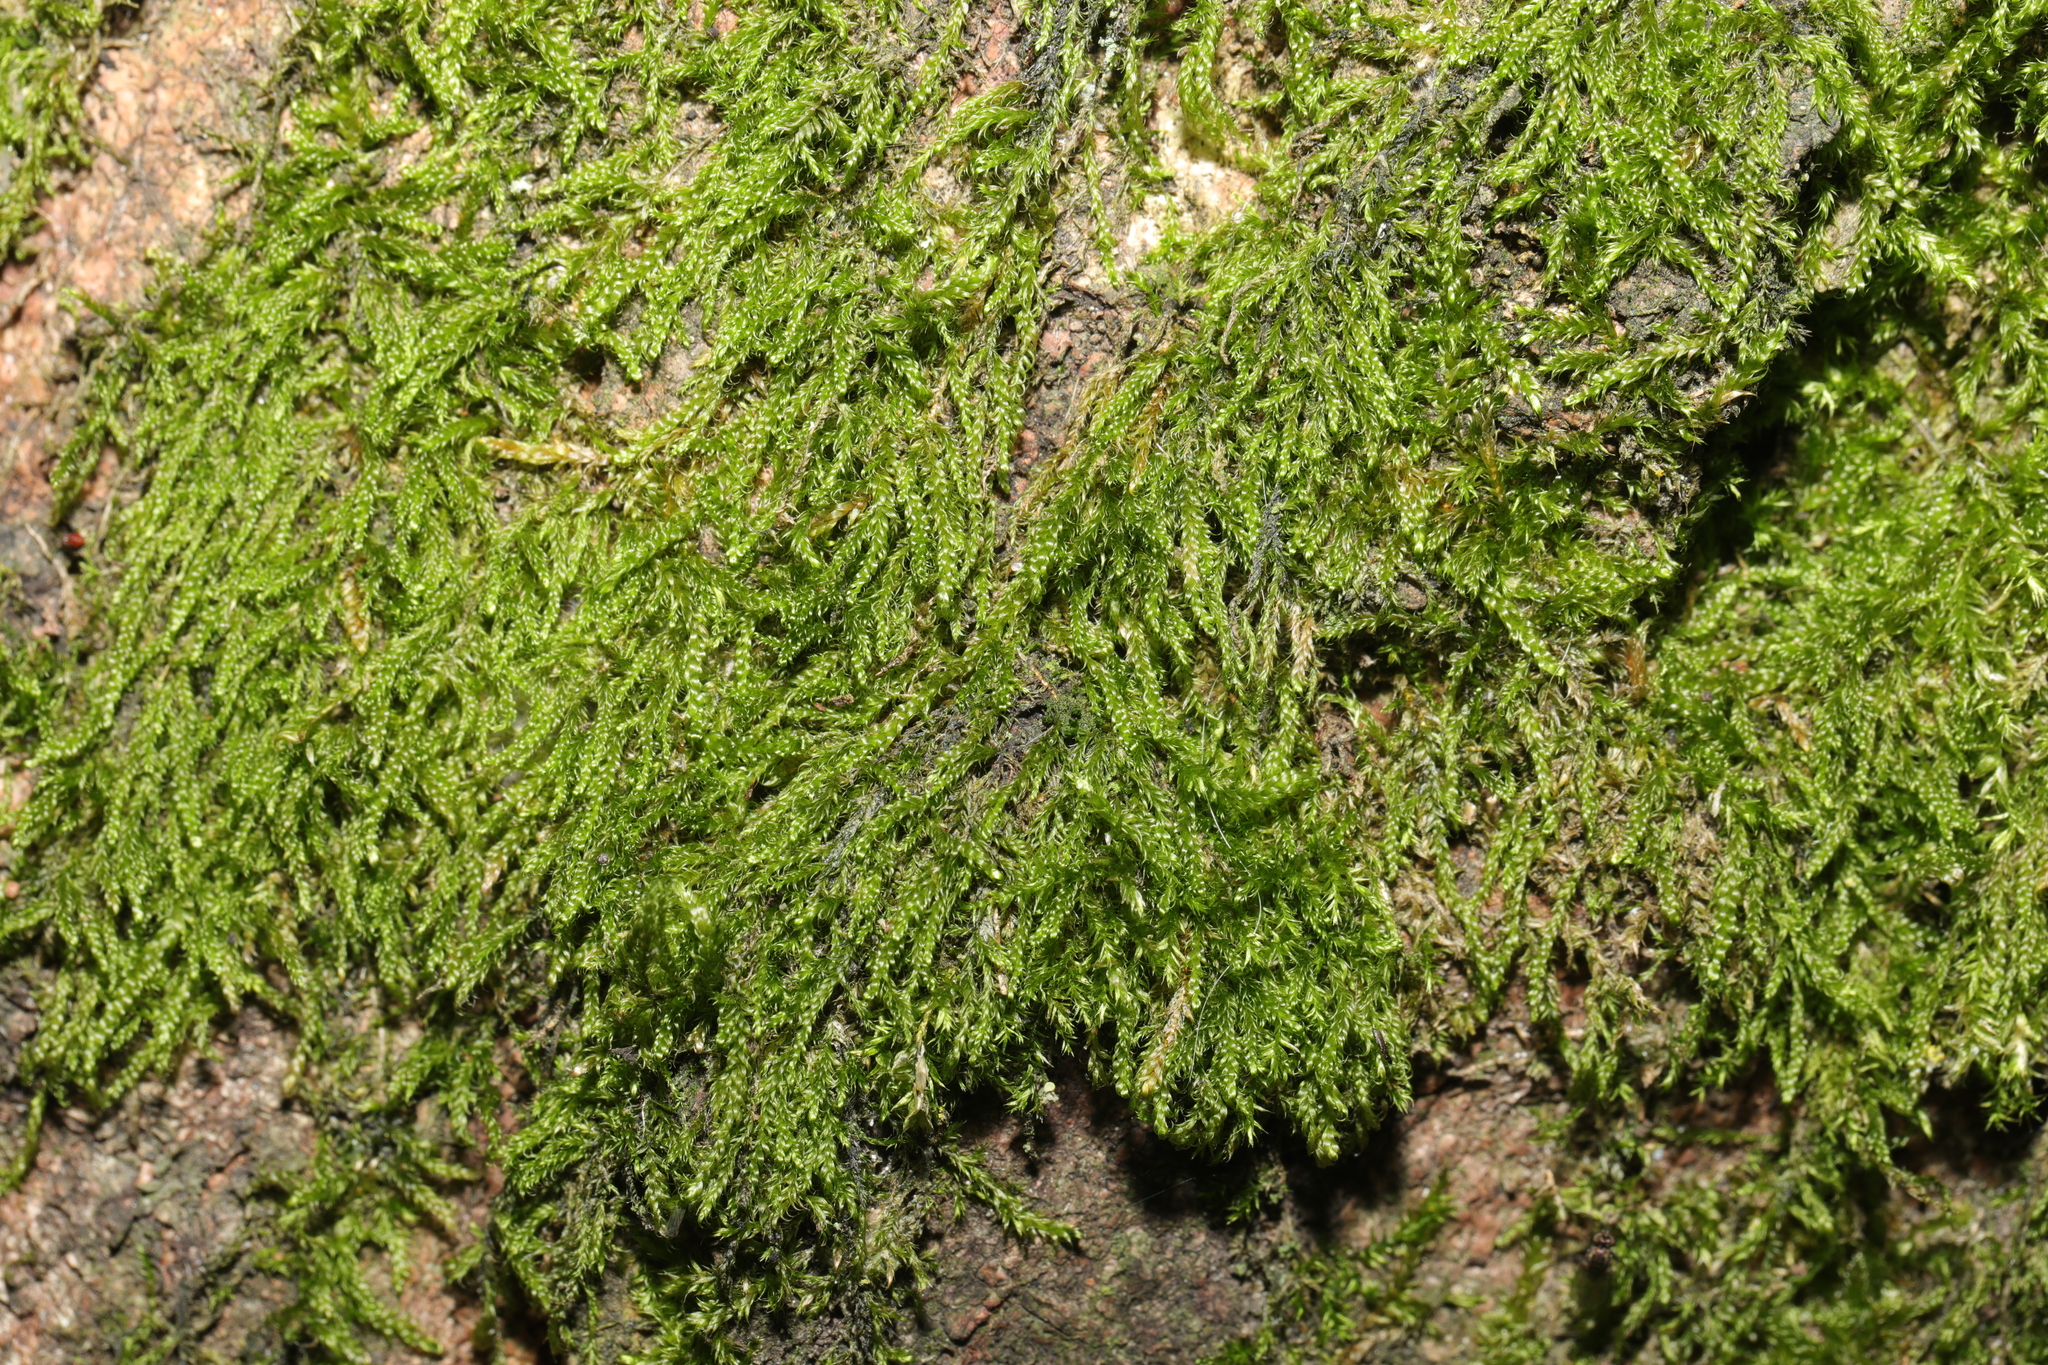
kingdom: Plantae
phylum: Bryophyta
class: Bryopsida
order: Hypnales
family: Hypnaceae
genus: Hypnum
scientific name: Hypnum andoi
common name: Ando's plait moss
